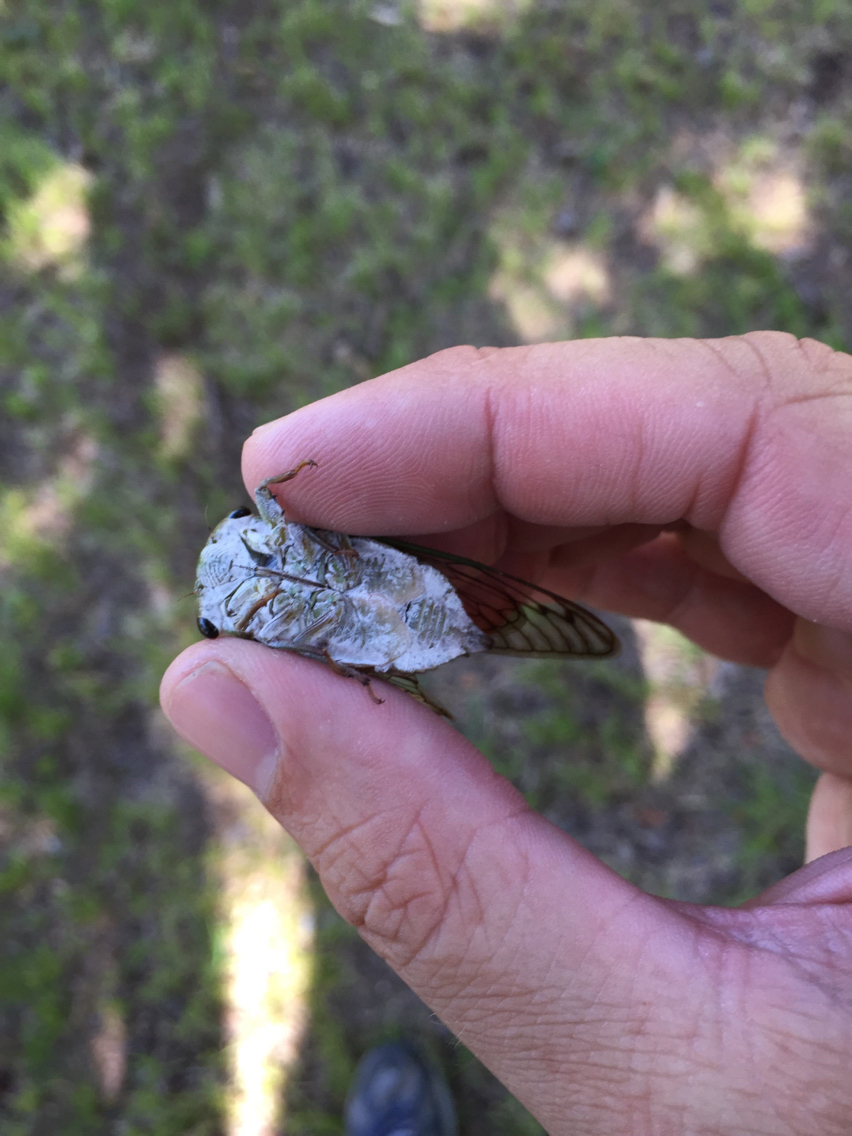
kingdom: Animalia
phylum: Arthropoda
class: Insecta
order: Hemiptera
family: Cicadidae
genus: Neotibicen
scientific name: Neotibicen superbus
